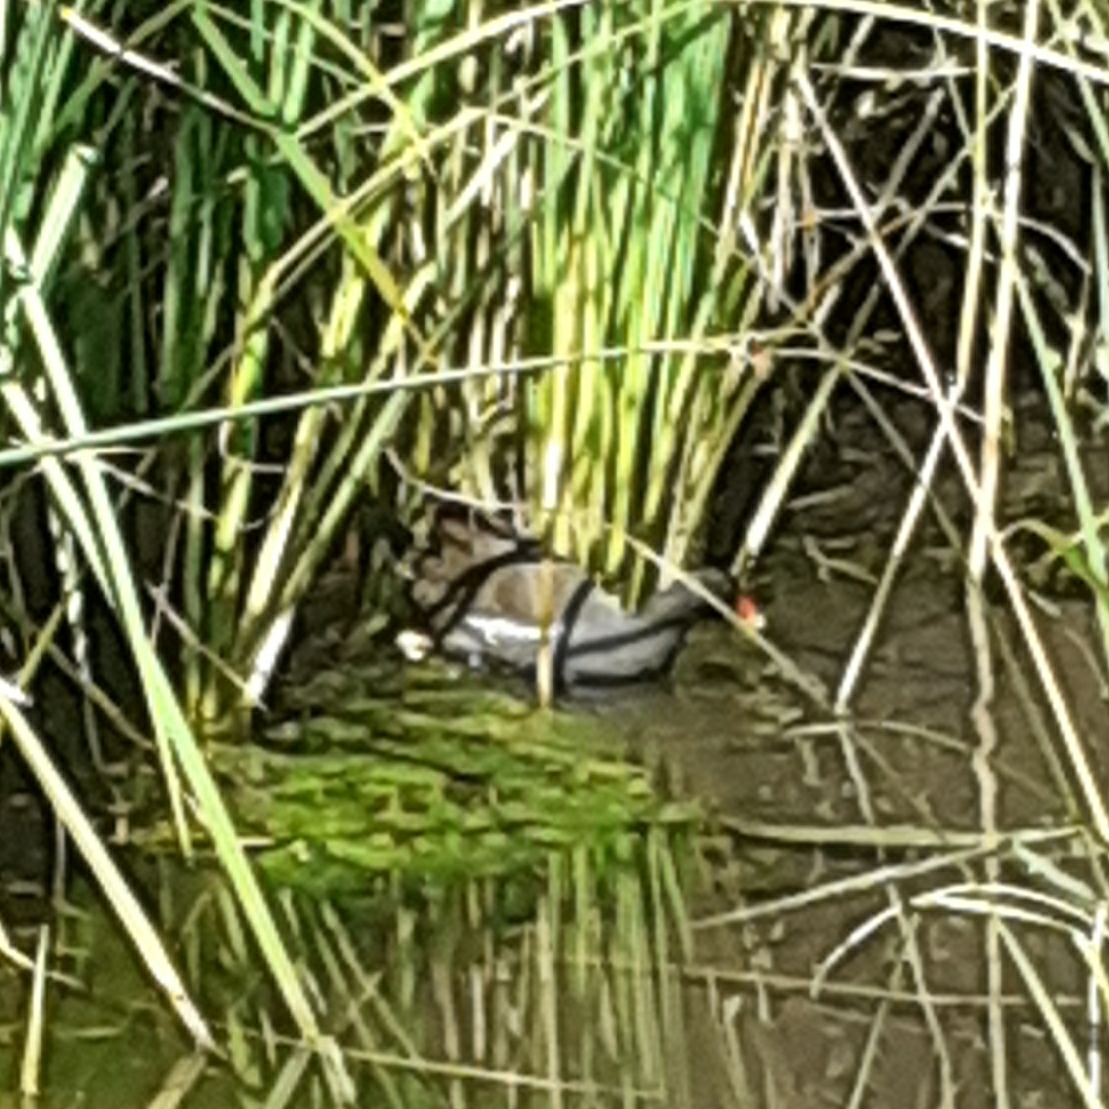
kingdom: Animalia
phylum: Chordata
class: Aves
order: Gruiformes
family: Rallidae
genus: Gallinula
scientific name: Gallinula chloropus
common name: Common moorhen
